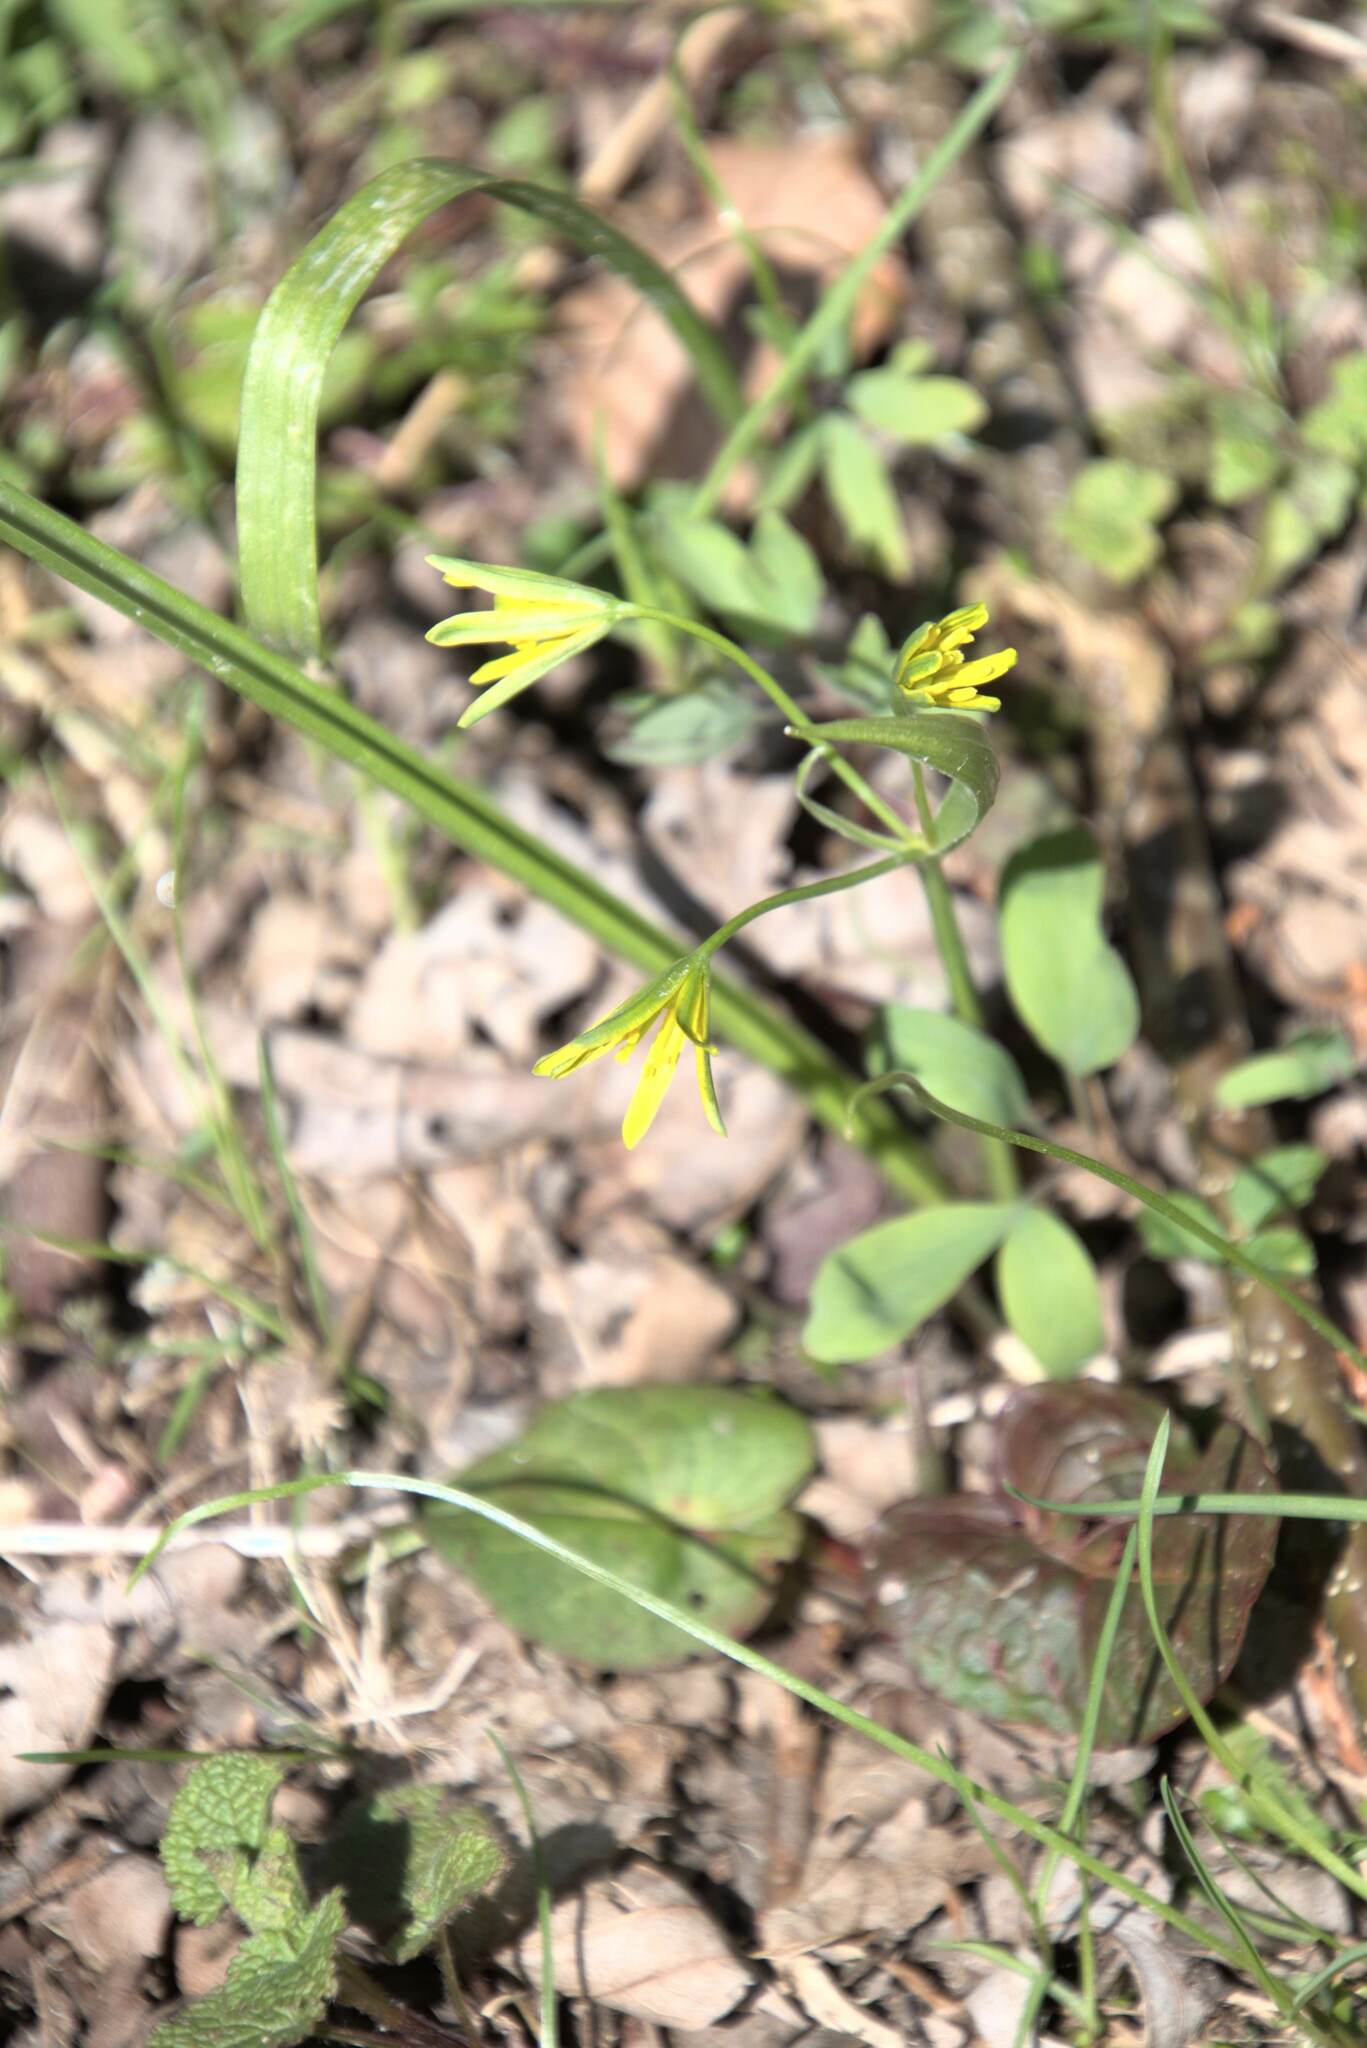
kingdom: Plantae
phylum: Tracheophyta
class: Liliopsida
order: Liliales
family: Liliaceae
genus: Gagea
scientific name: Gagea lutea
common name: Yellow star-of-bethlehem
